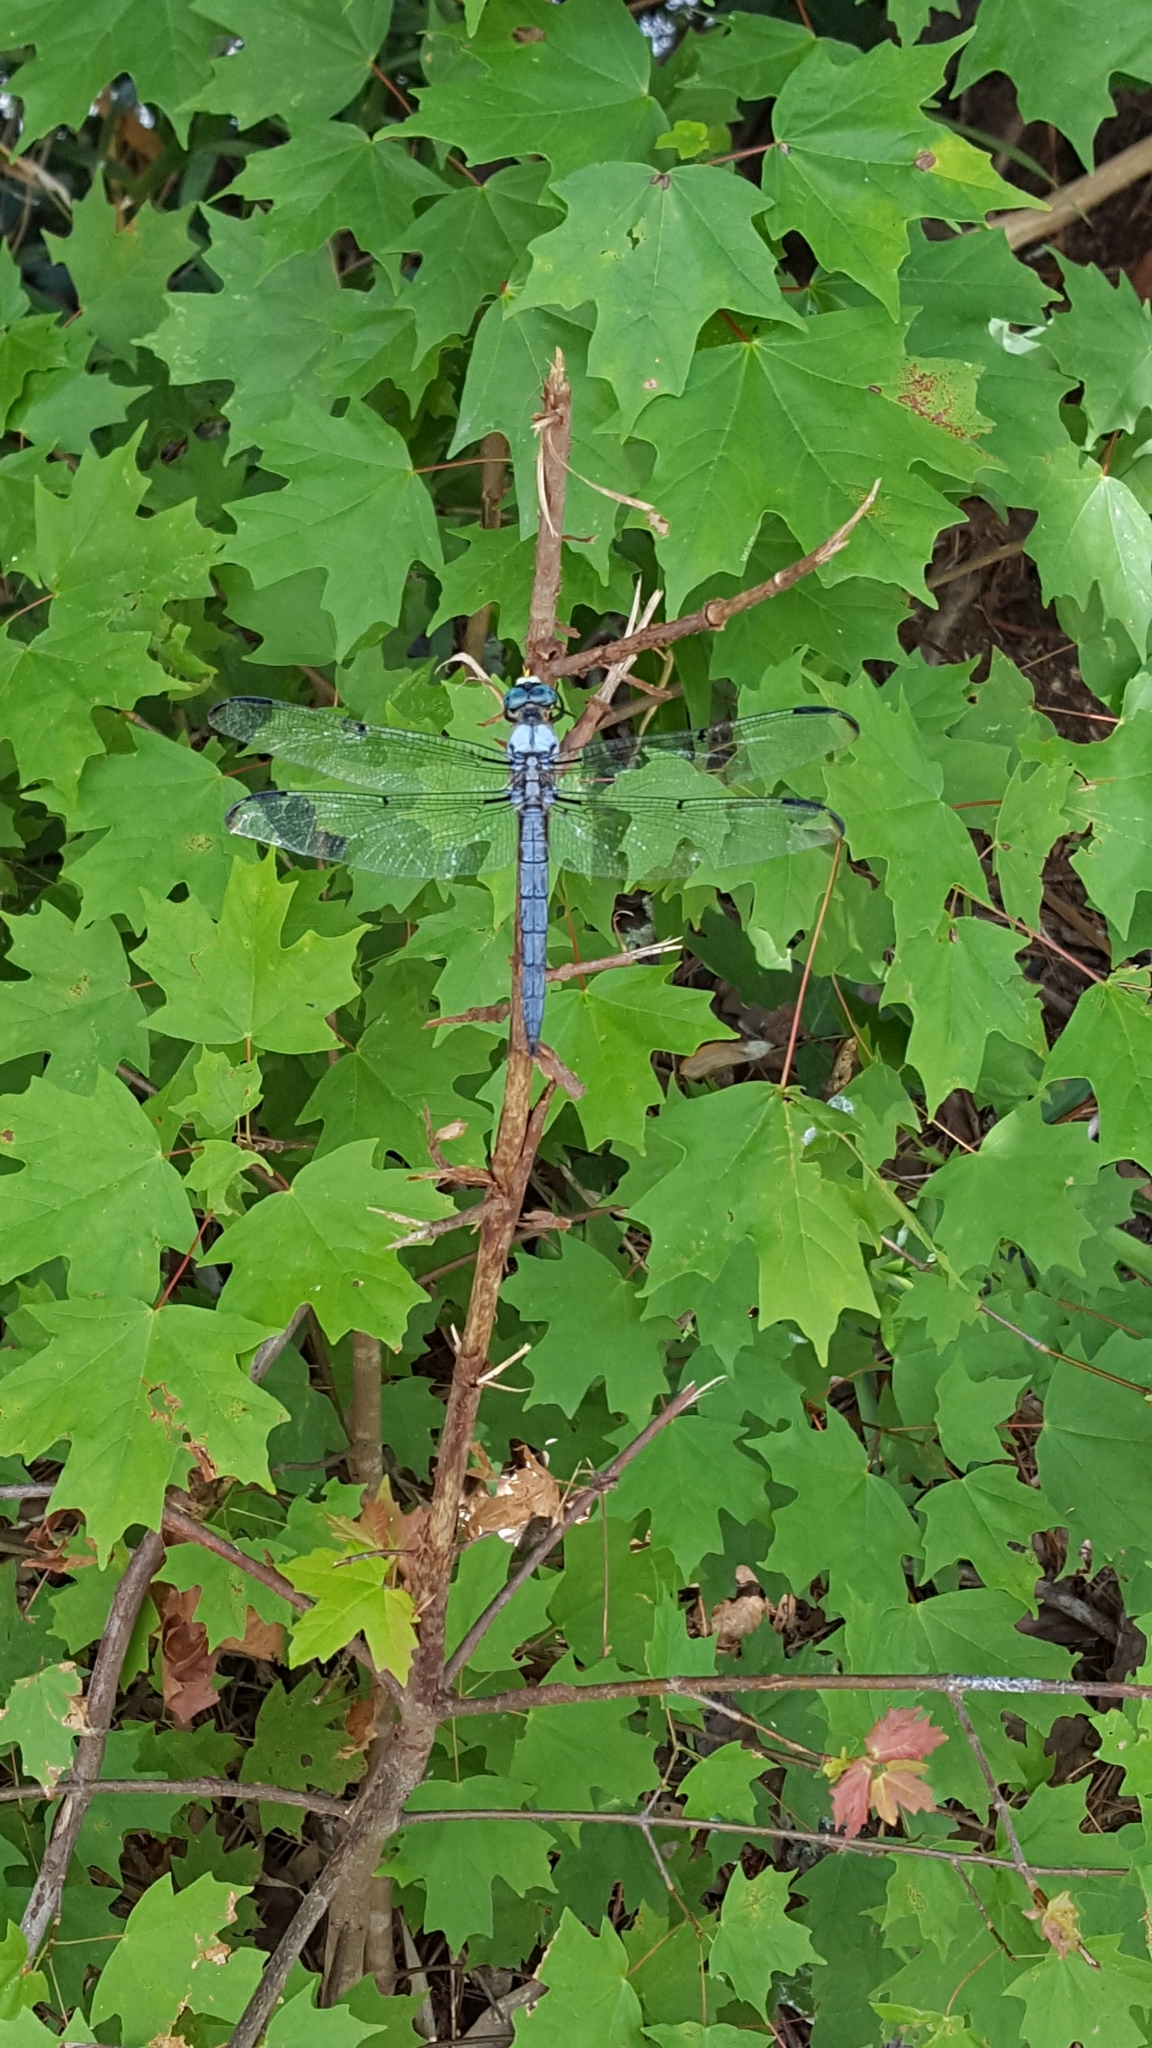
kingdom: Animalia
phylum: Arthropoda
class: Insecta
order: Odonata
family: Libellulidae
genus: Libellula
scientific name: Libellula vibrans
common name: Great blue skimmer
